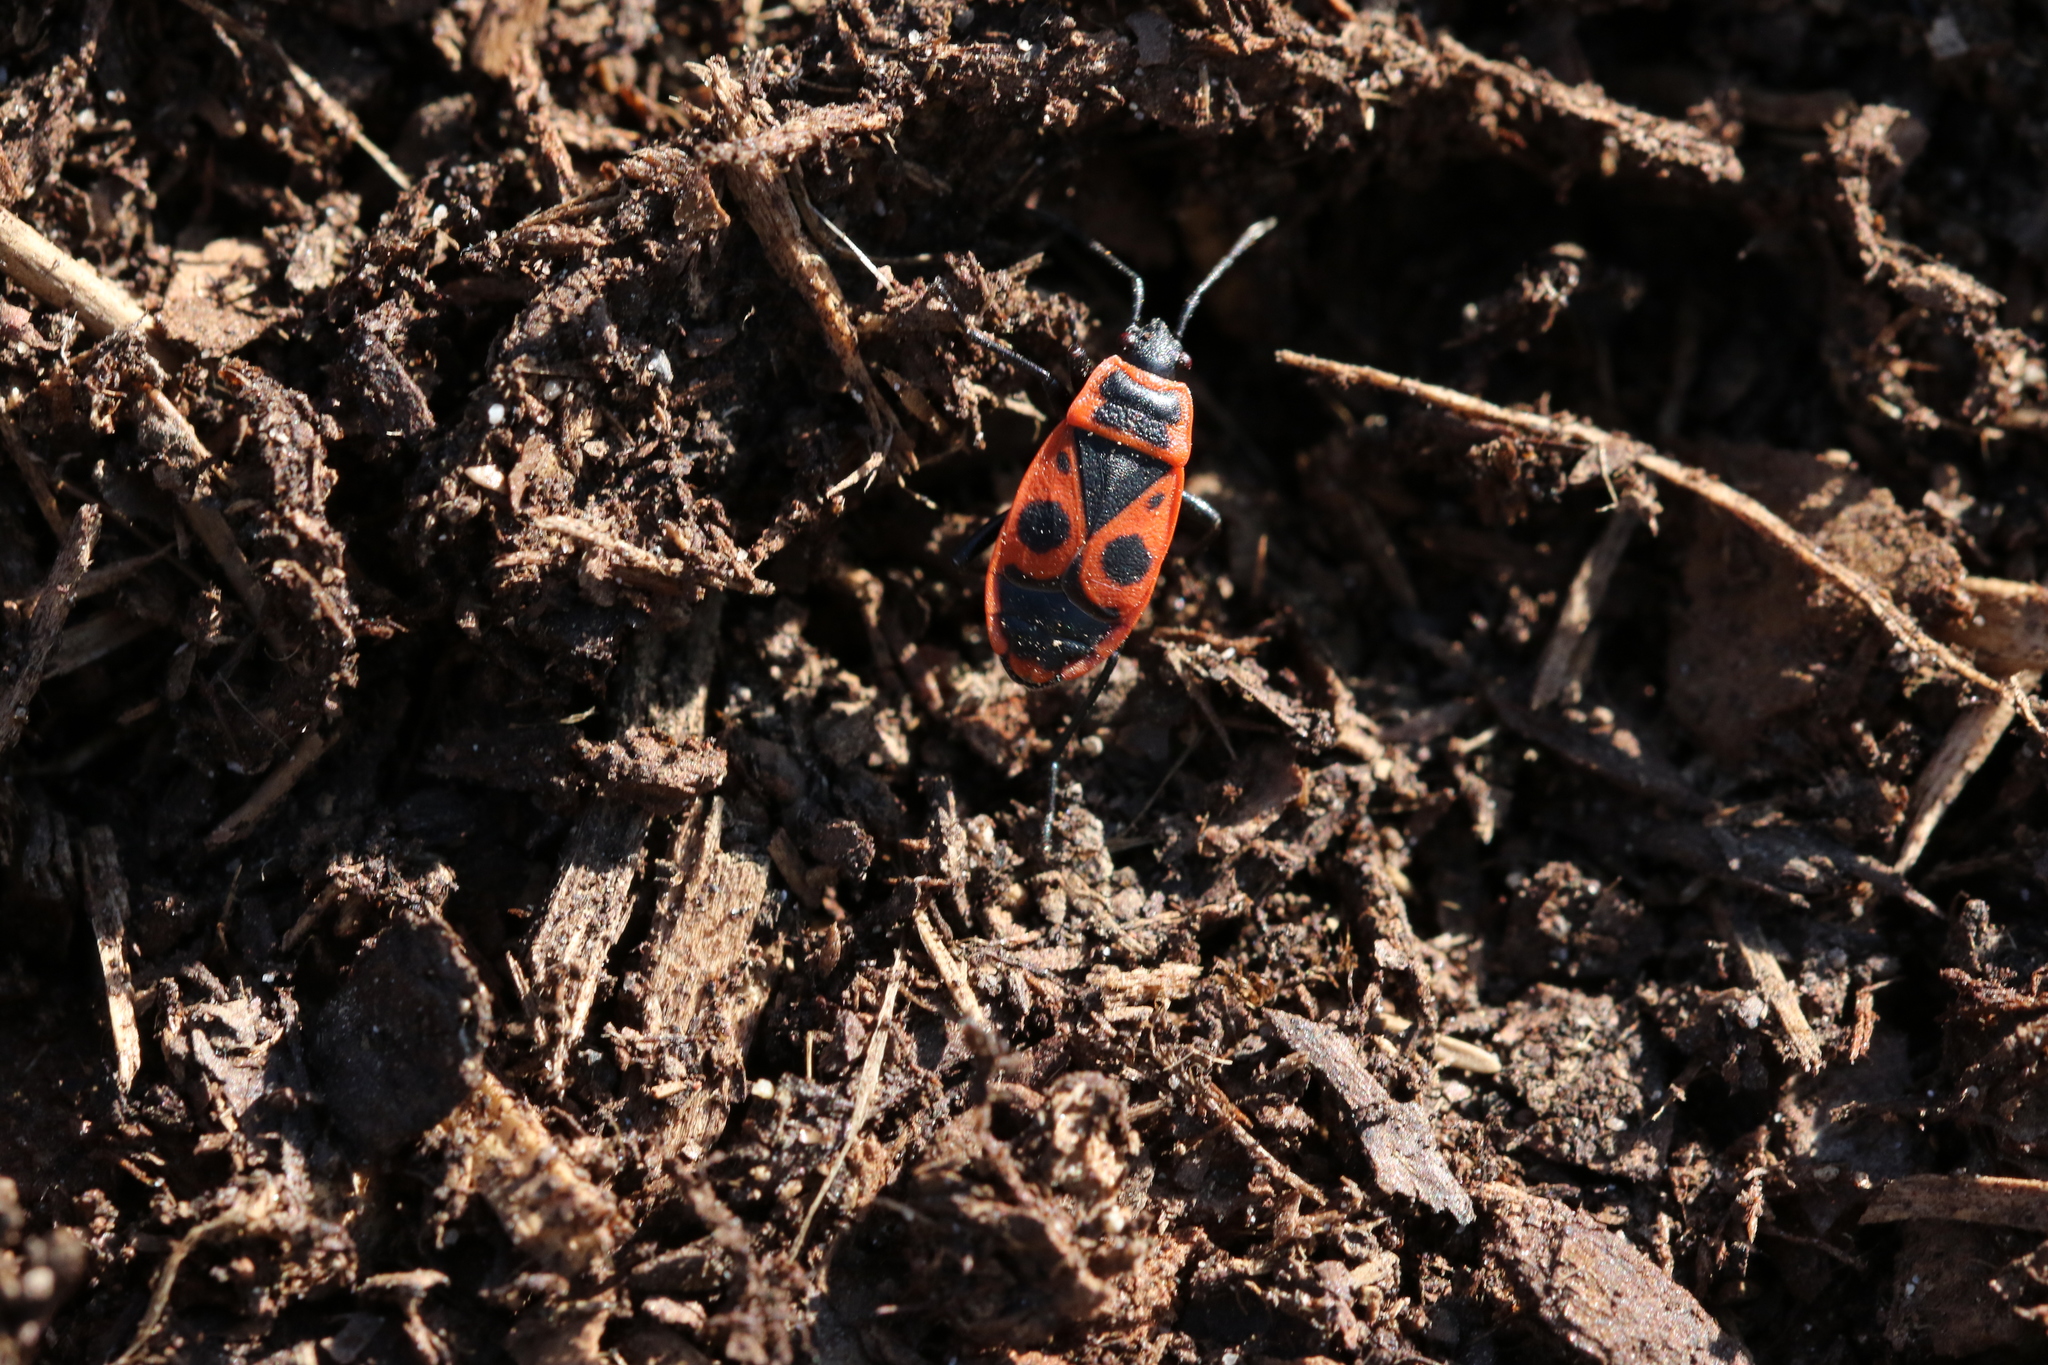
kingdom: Animalia
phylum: Arthropoda
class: Insecta
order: Hemiptera
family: Pyrrhocoridae
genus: Pyrrhocoris
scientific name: Pyrrhocoris apterus
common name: Firebug
